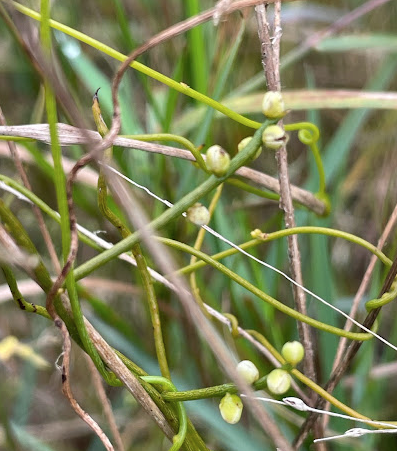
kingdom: Plantae
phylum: Tracheophyta
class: Magnoliopsida
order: Laurales
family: Lauraceae
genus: Cassytha
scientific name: Cassytha filiformis
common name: Dodder-laurel
